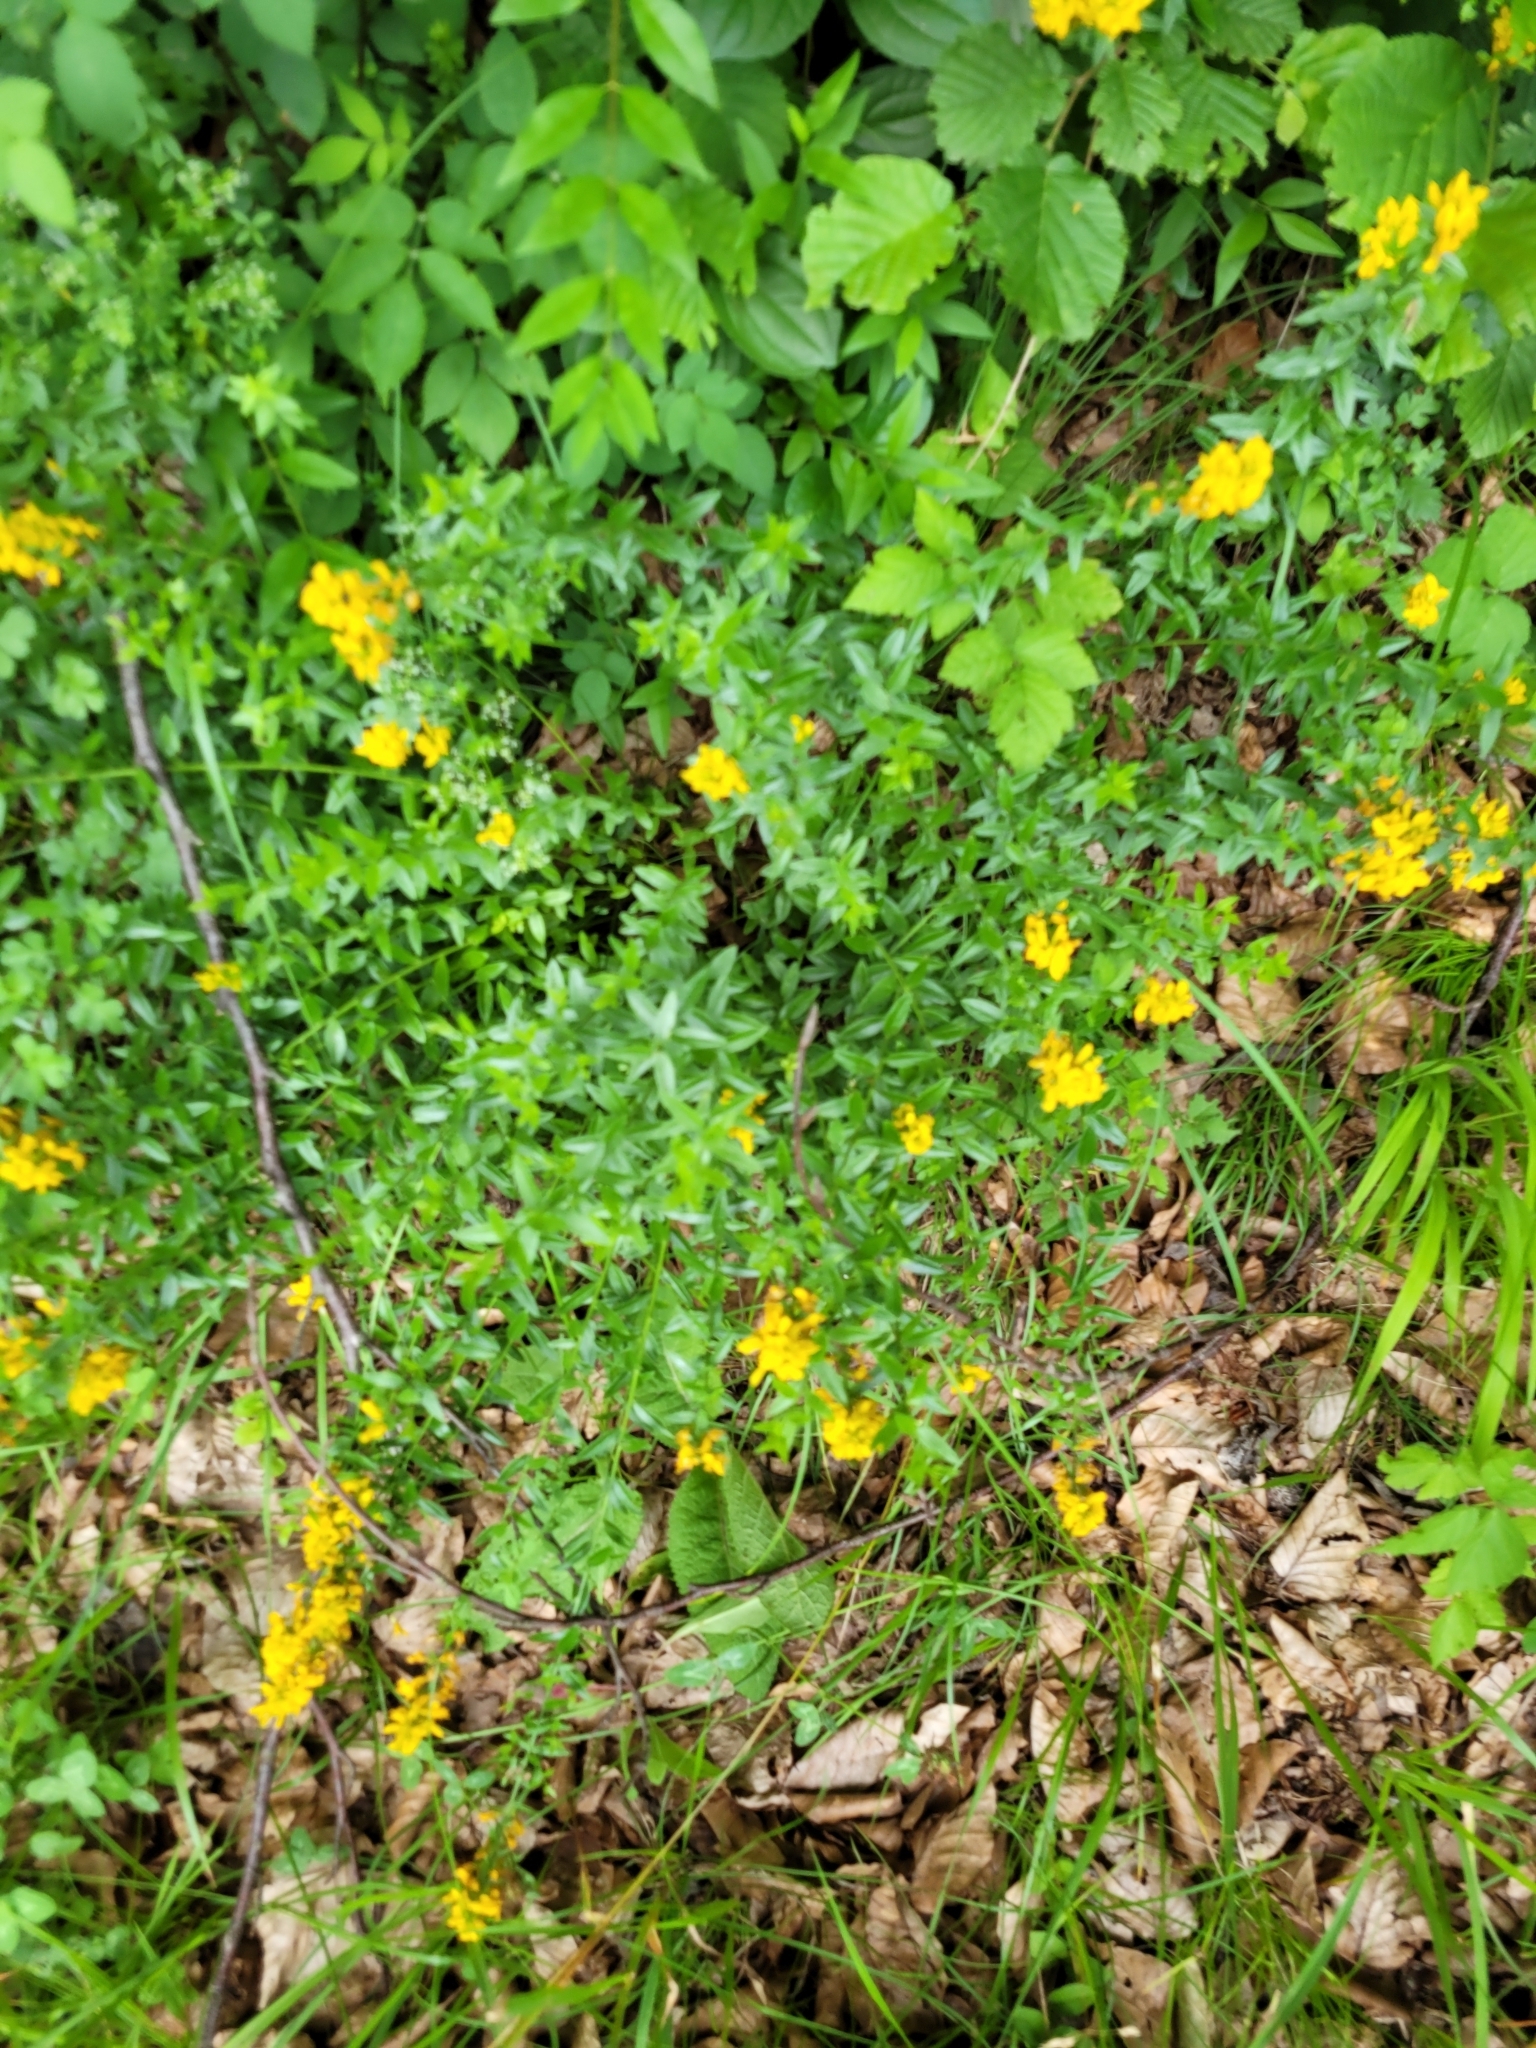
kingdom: Plantae
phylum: Tracheophyta
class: Magnoliopsida
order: Fabales
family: Fabaceae
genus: Genista
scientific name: Genista tinctoria
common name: Dyer's greenweed
